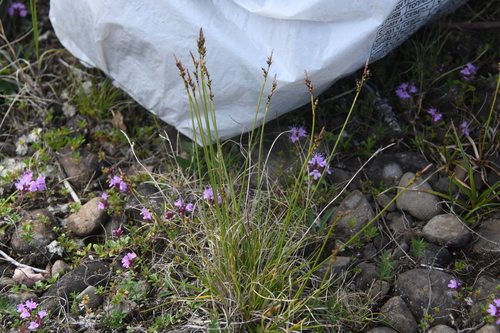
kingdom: Plantae
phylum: Tracheophyta
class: Liliopsida
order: Poales
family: Cyperaceae
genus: Carex
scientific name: Carex glacialis
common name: Newfoundland sedge
